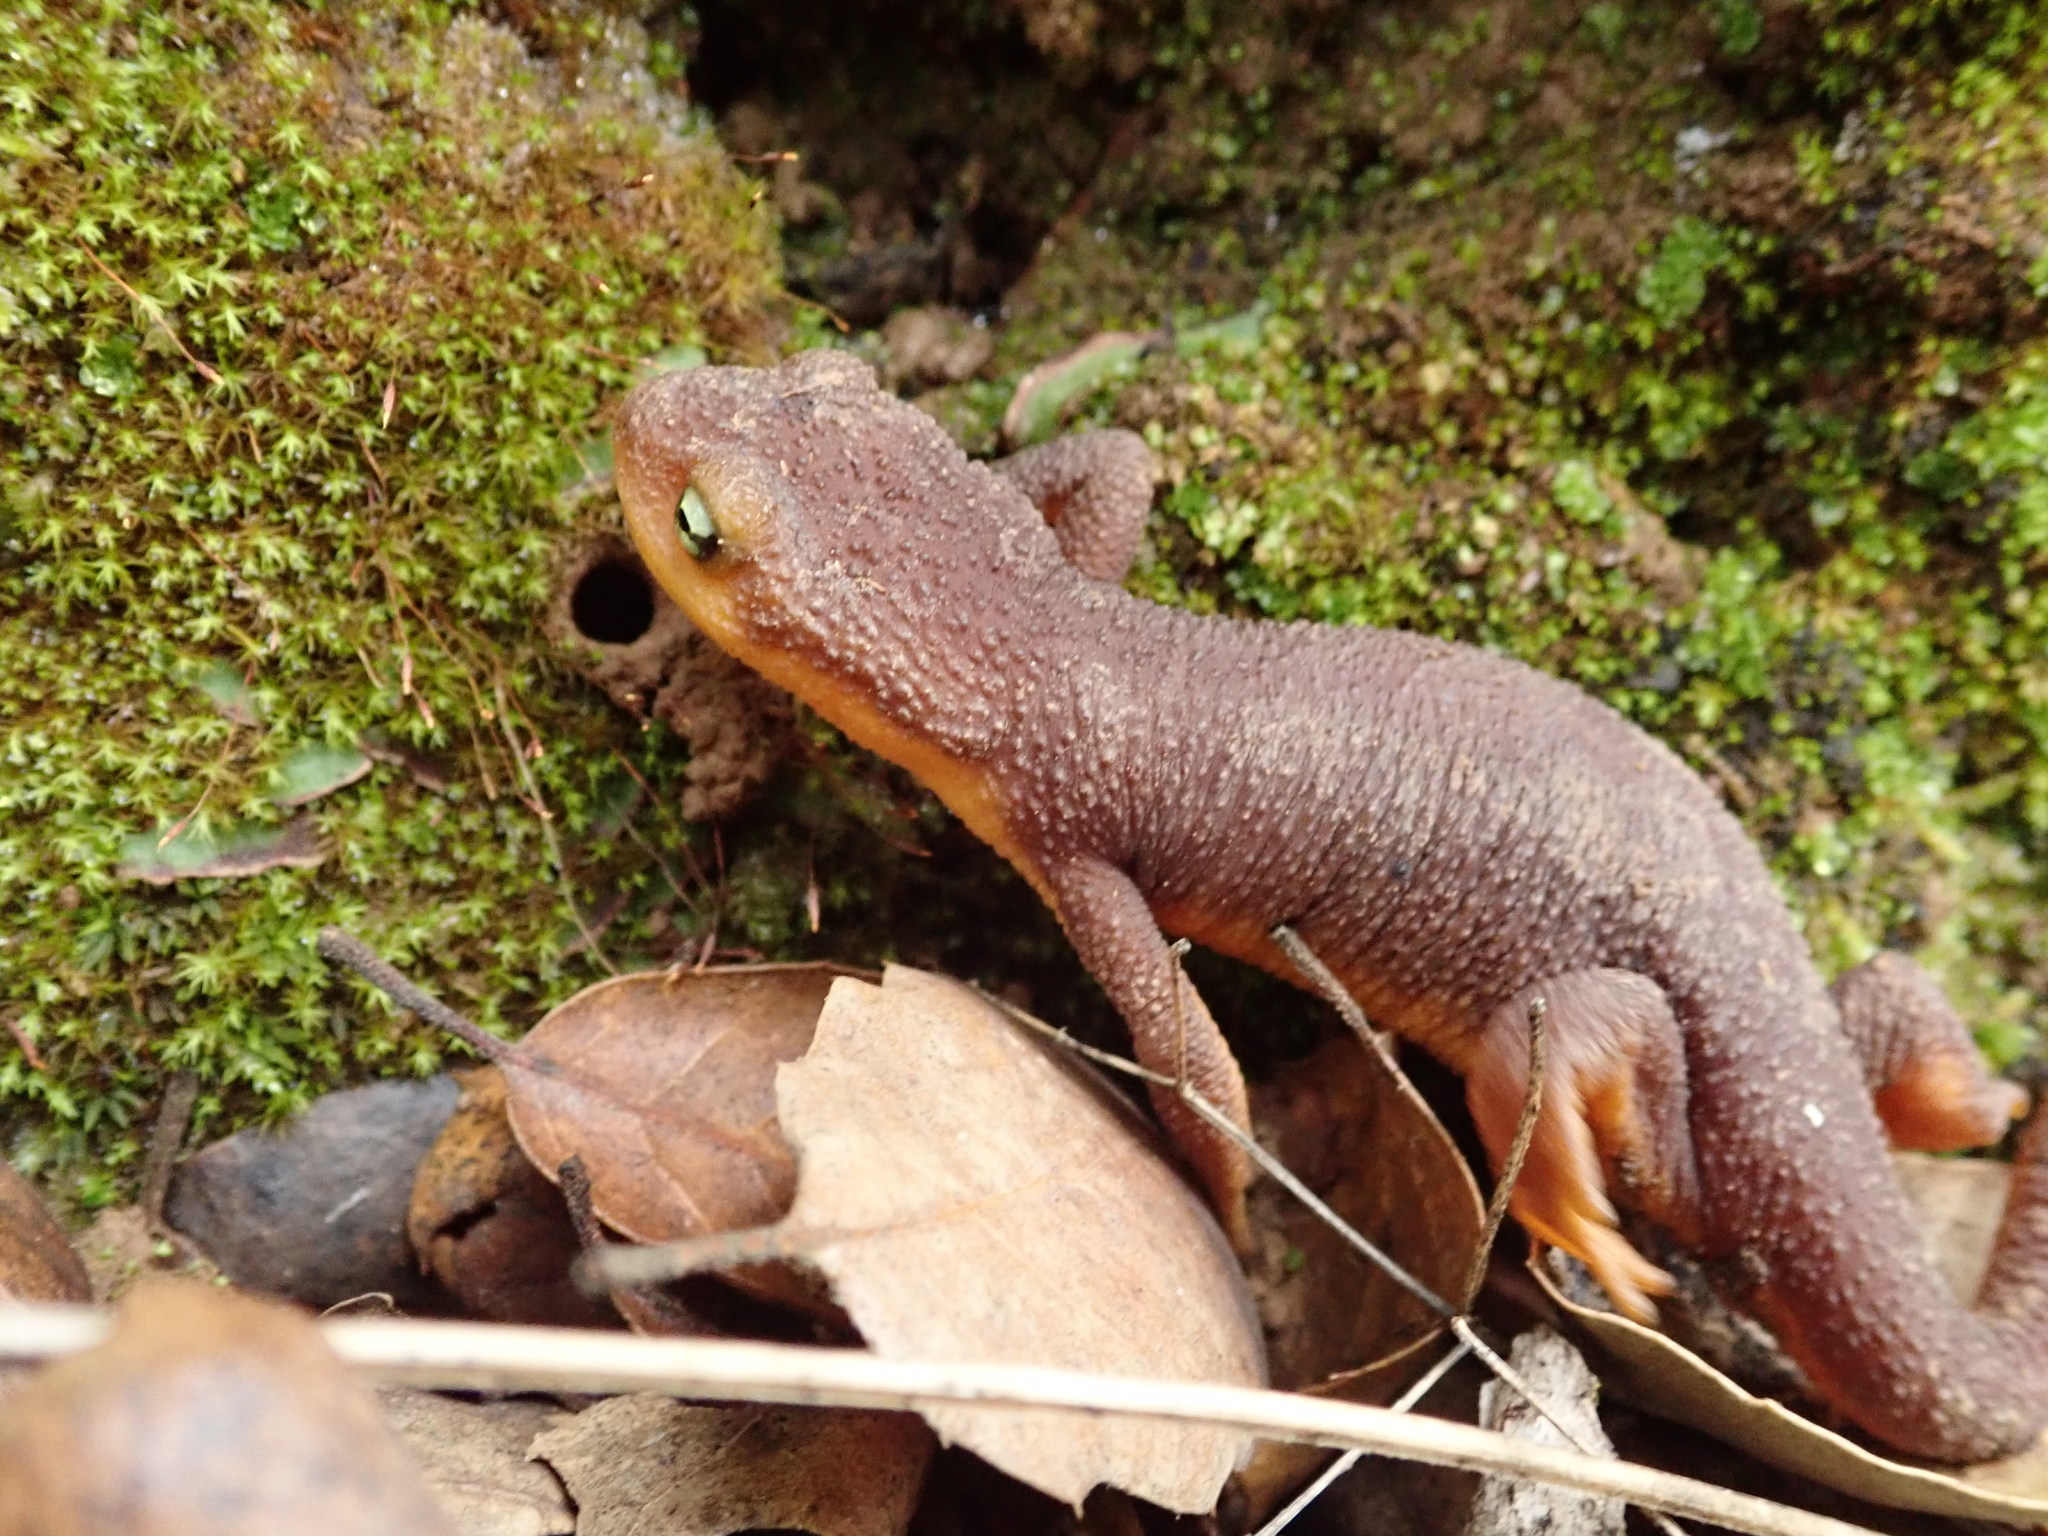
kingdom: Animalia
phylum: Chordata
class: Amphibia
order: Caudata
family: Salamandridae
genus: Taricha
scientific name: Taricha torosa
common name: California newt
